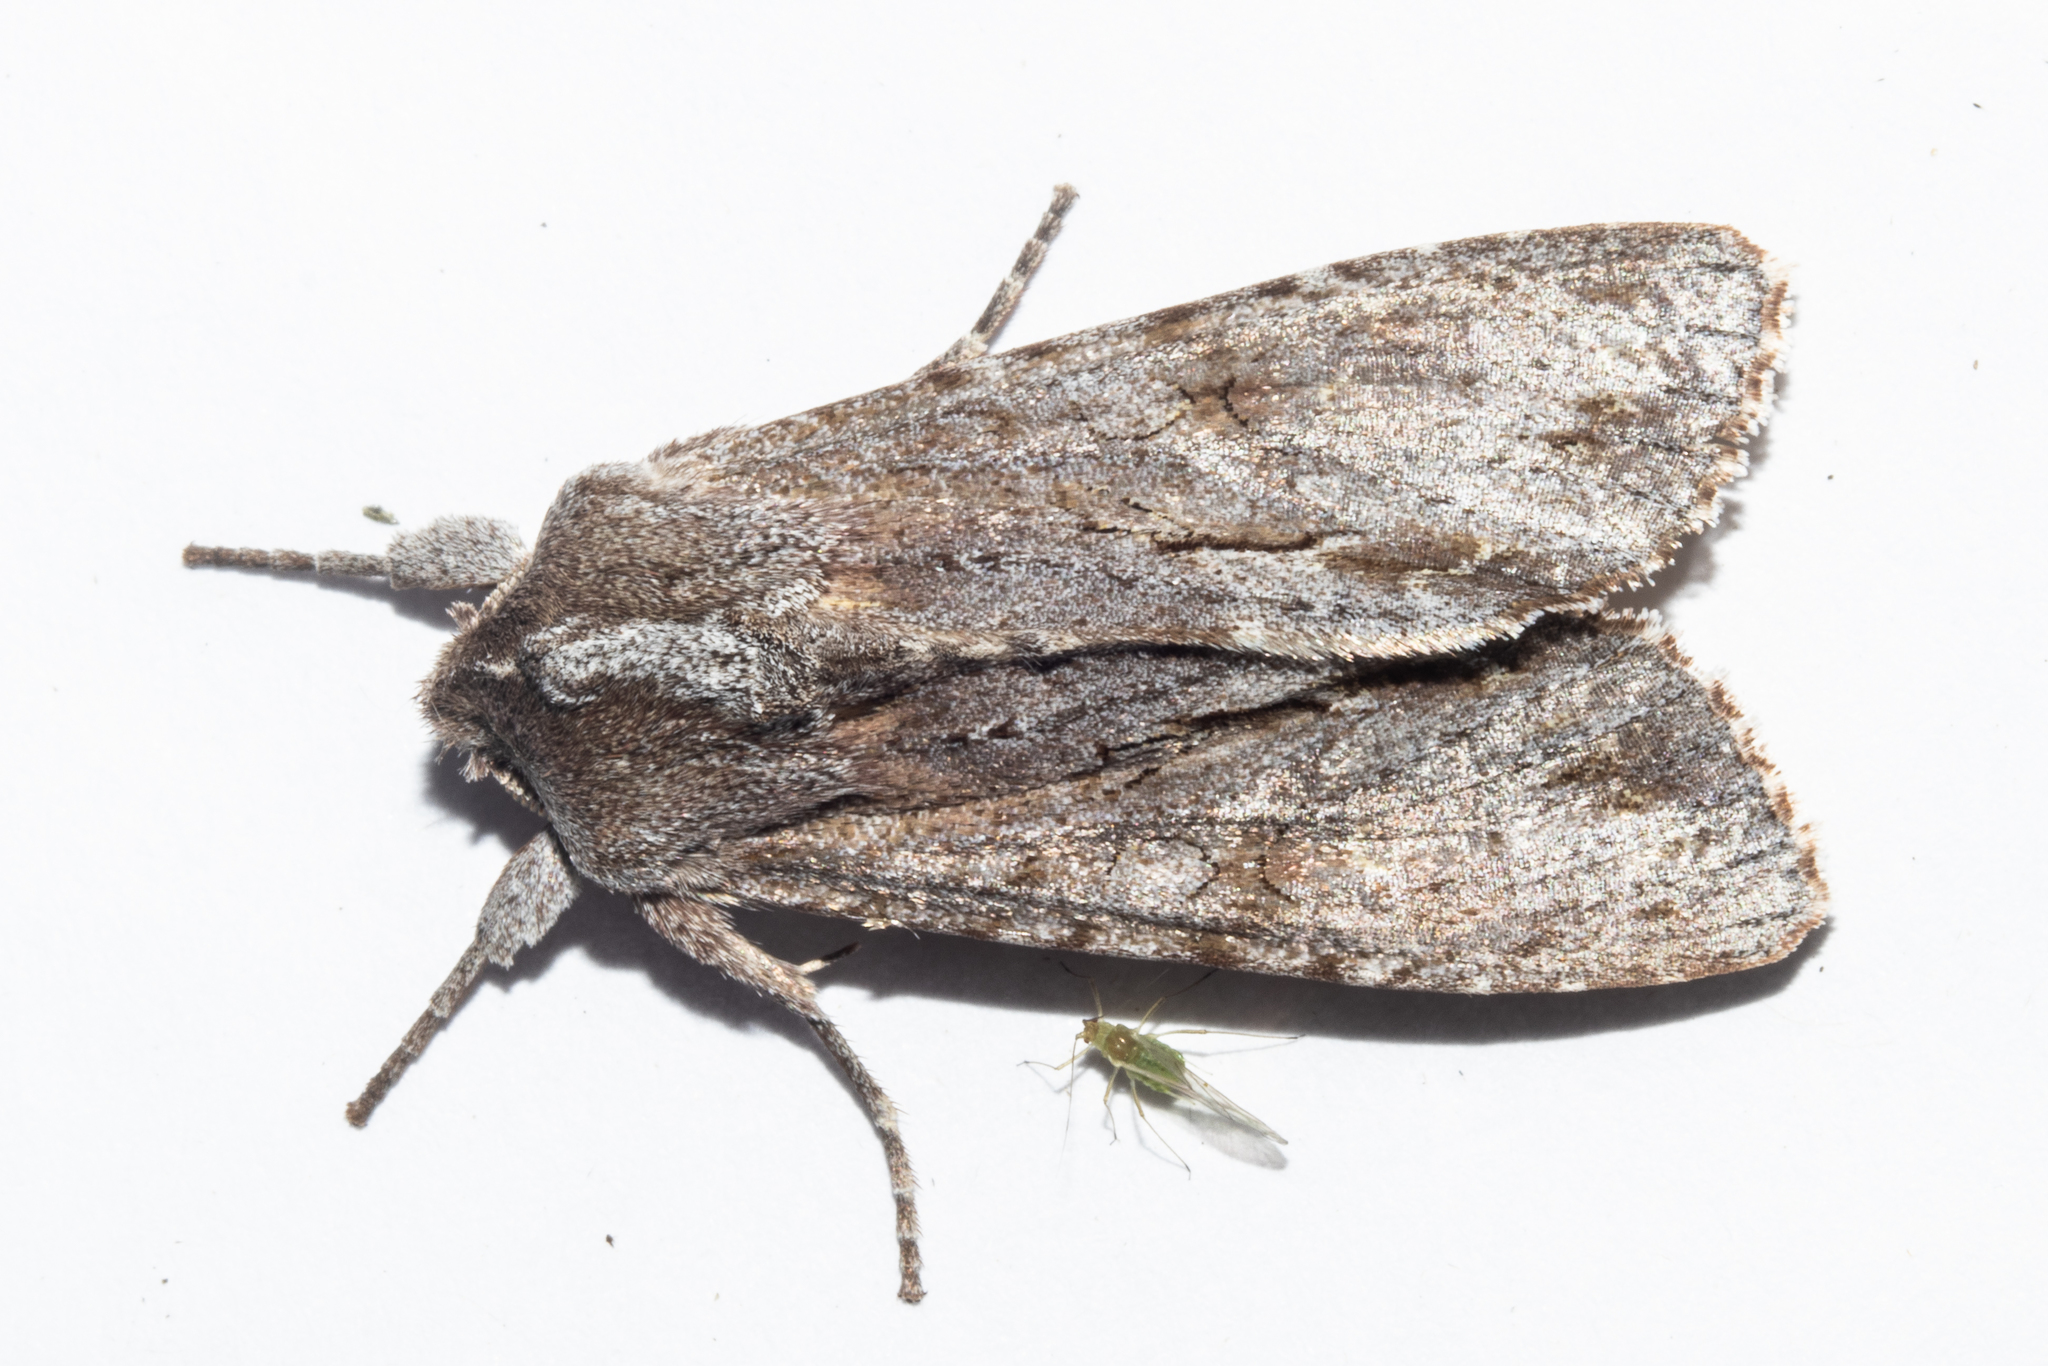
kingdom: Animalia
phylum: Arthropoda
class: Insecta
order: Lepidoptera
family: Noctuidae
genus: Ichneutica
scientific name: Ichneutica
